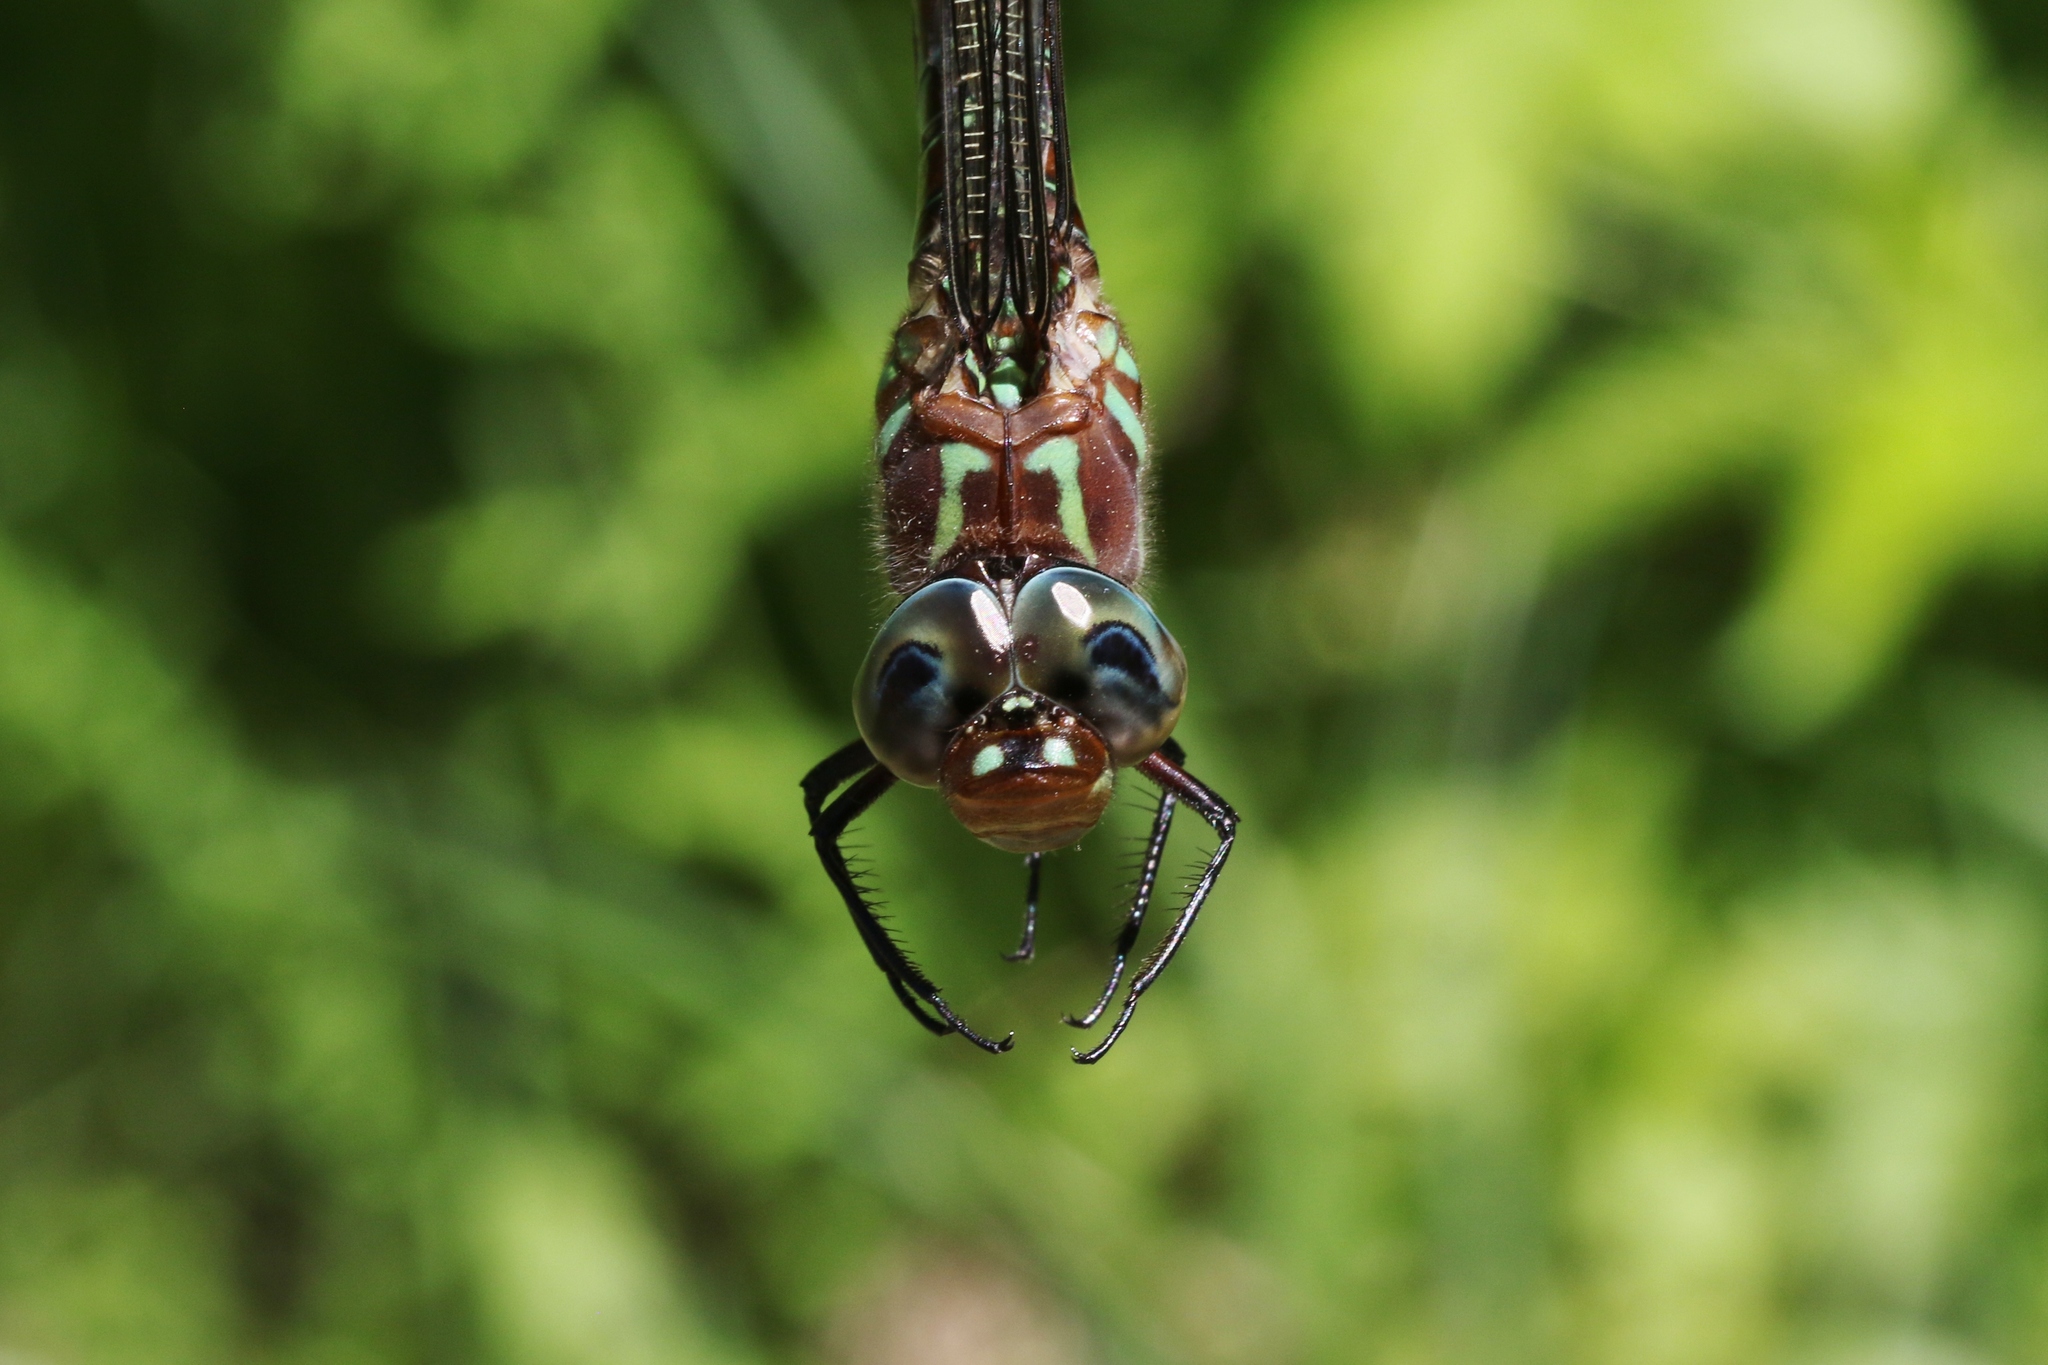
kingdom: Animalia
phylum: Arthropoda
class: Insecta
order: Odonata
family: Aeshnidae
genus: Epiaeschna
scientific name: Epiaeschna heros
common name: Swamp darner
